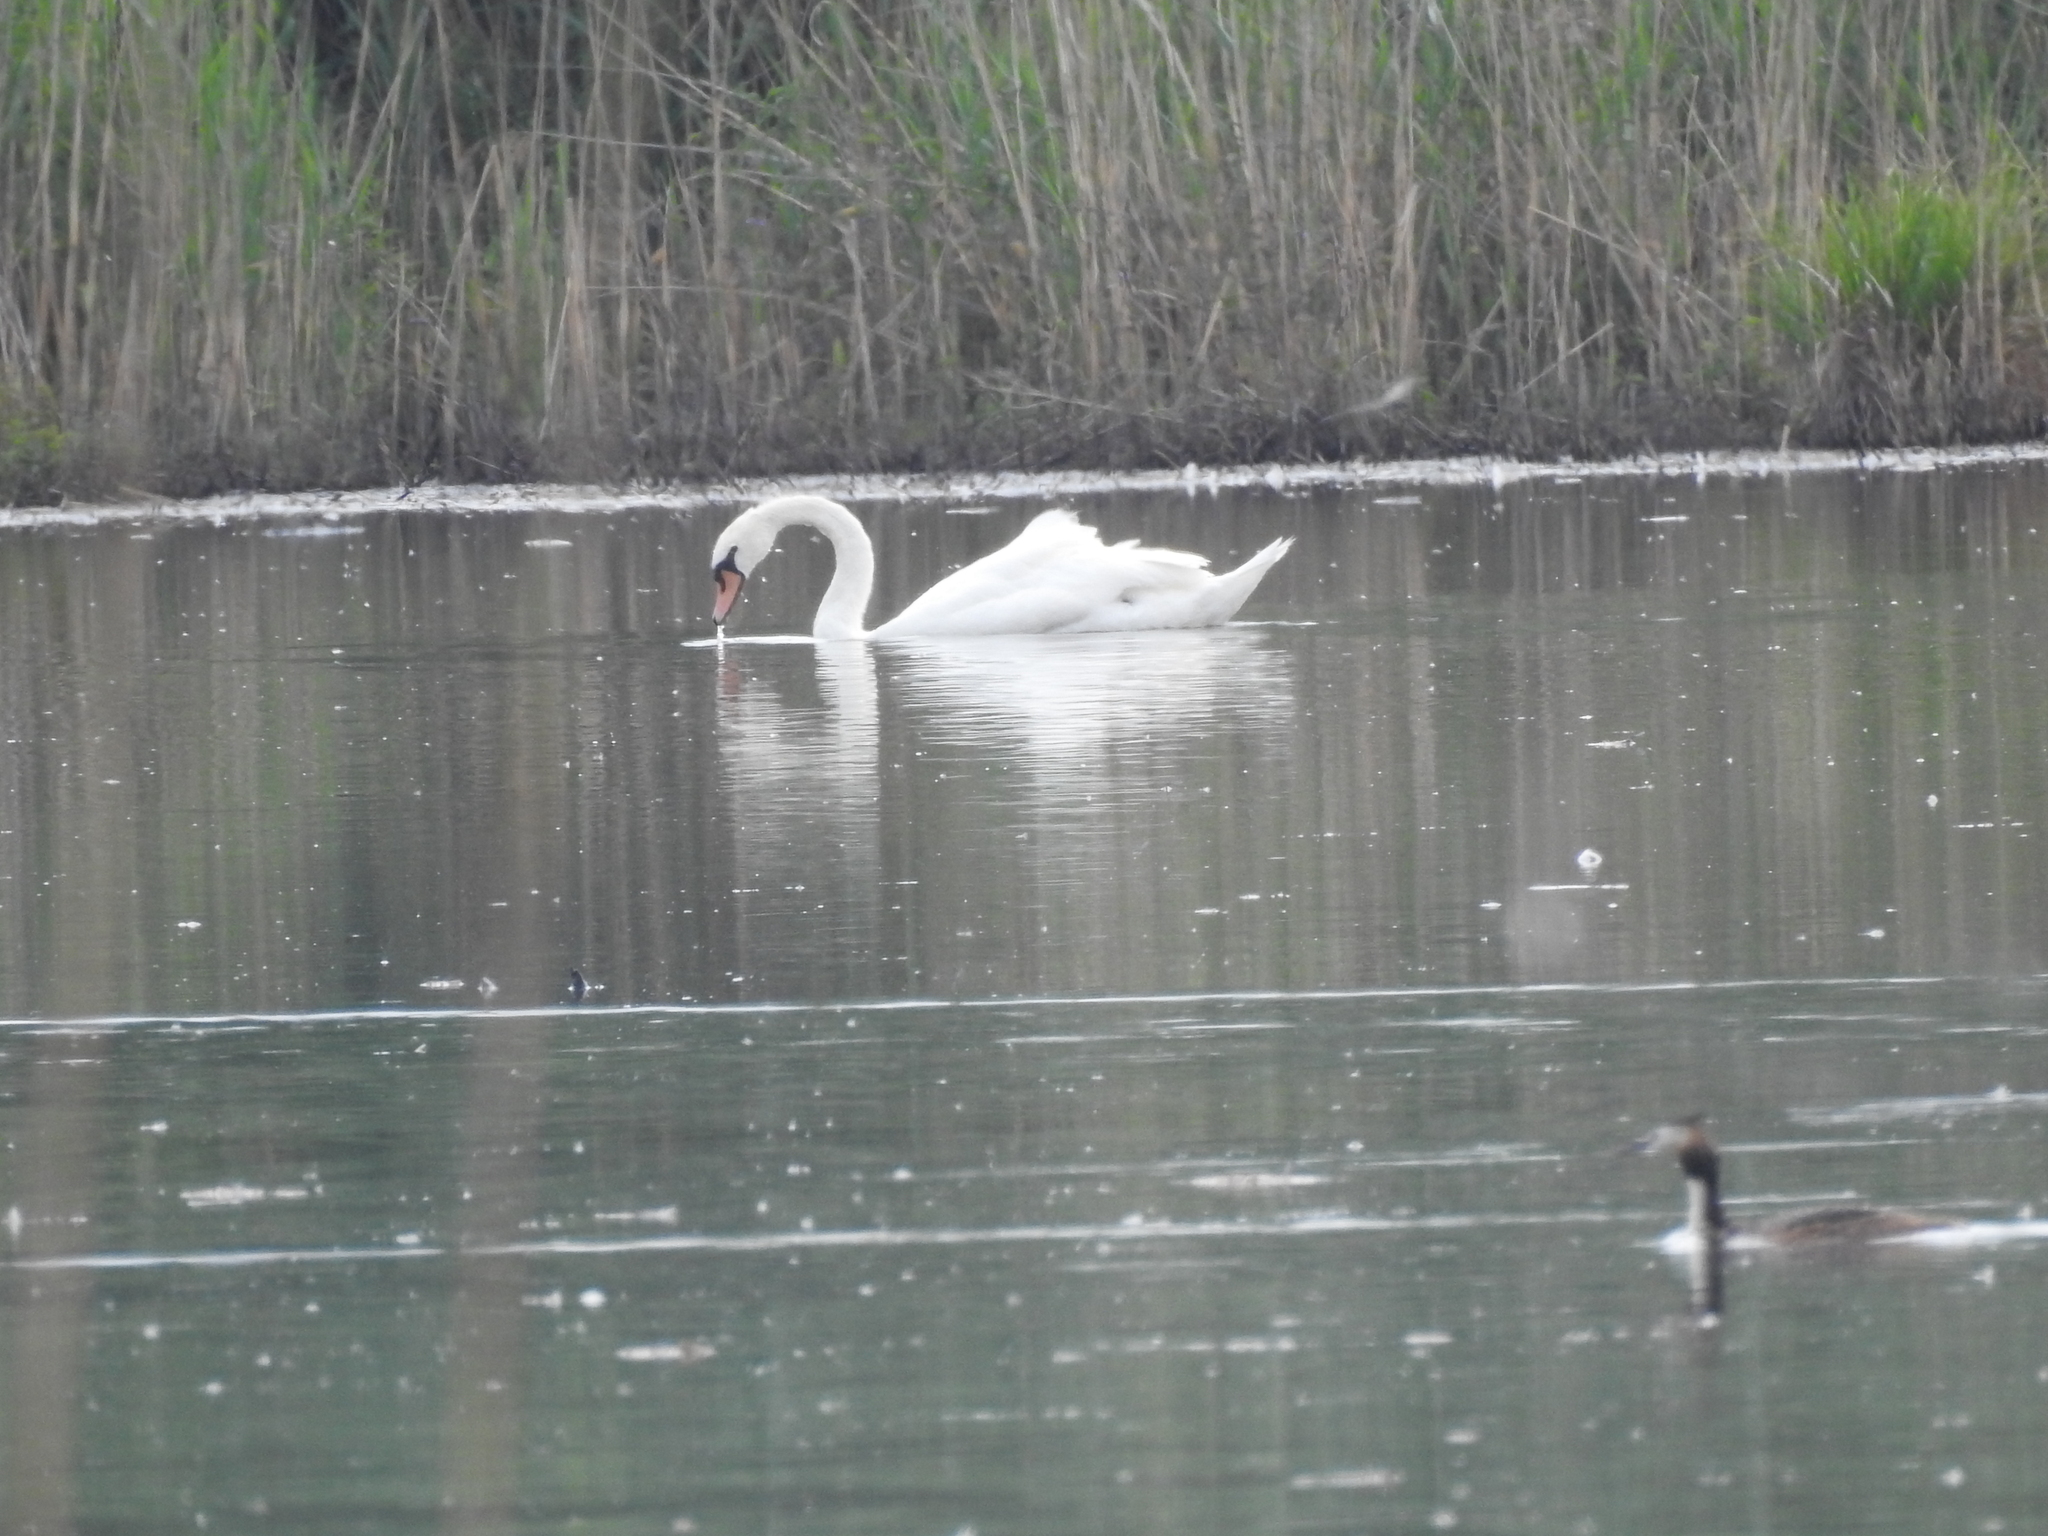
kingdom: Animalia
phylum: Chordata
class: Aves
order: Anseriformes
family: Anatidae
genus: Cygnus
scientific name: Cygnus olor
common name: Mute swan
